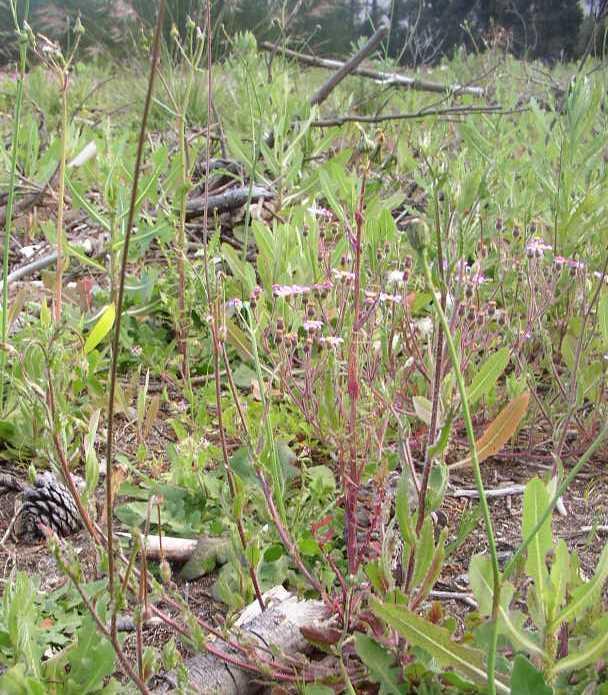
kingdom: Plantae
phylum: Tracheophyta
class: Magnoliopsida
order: Asterales
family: Asteraceae
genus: Senecio
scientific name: Senecio arenarius
